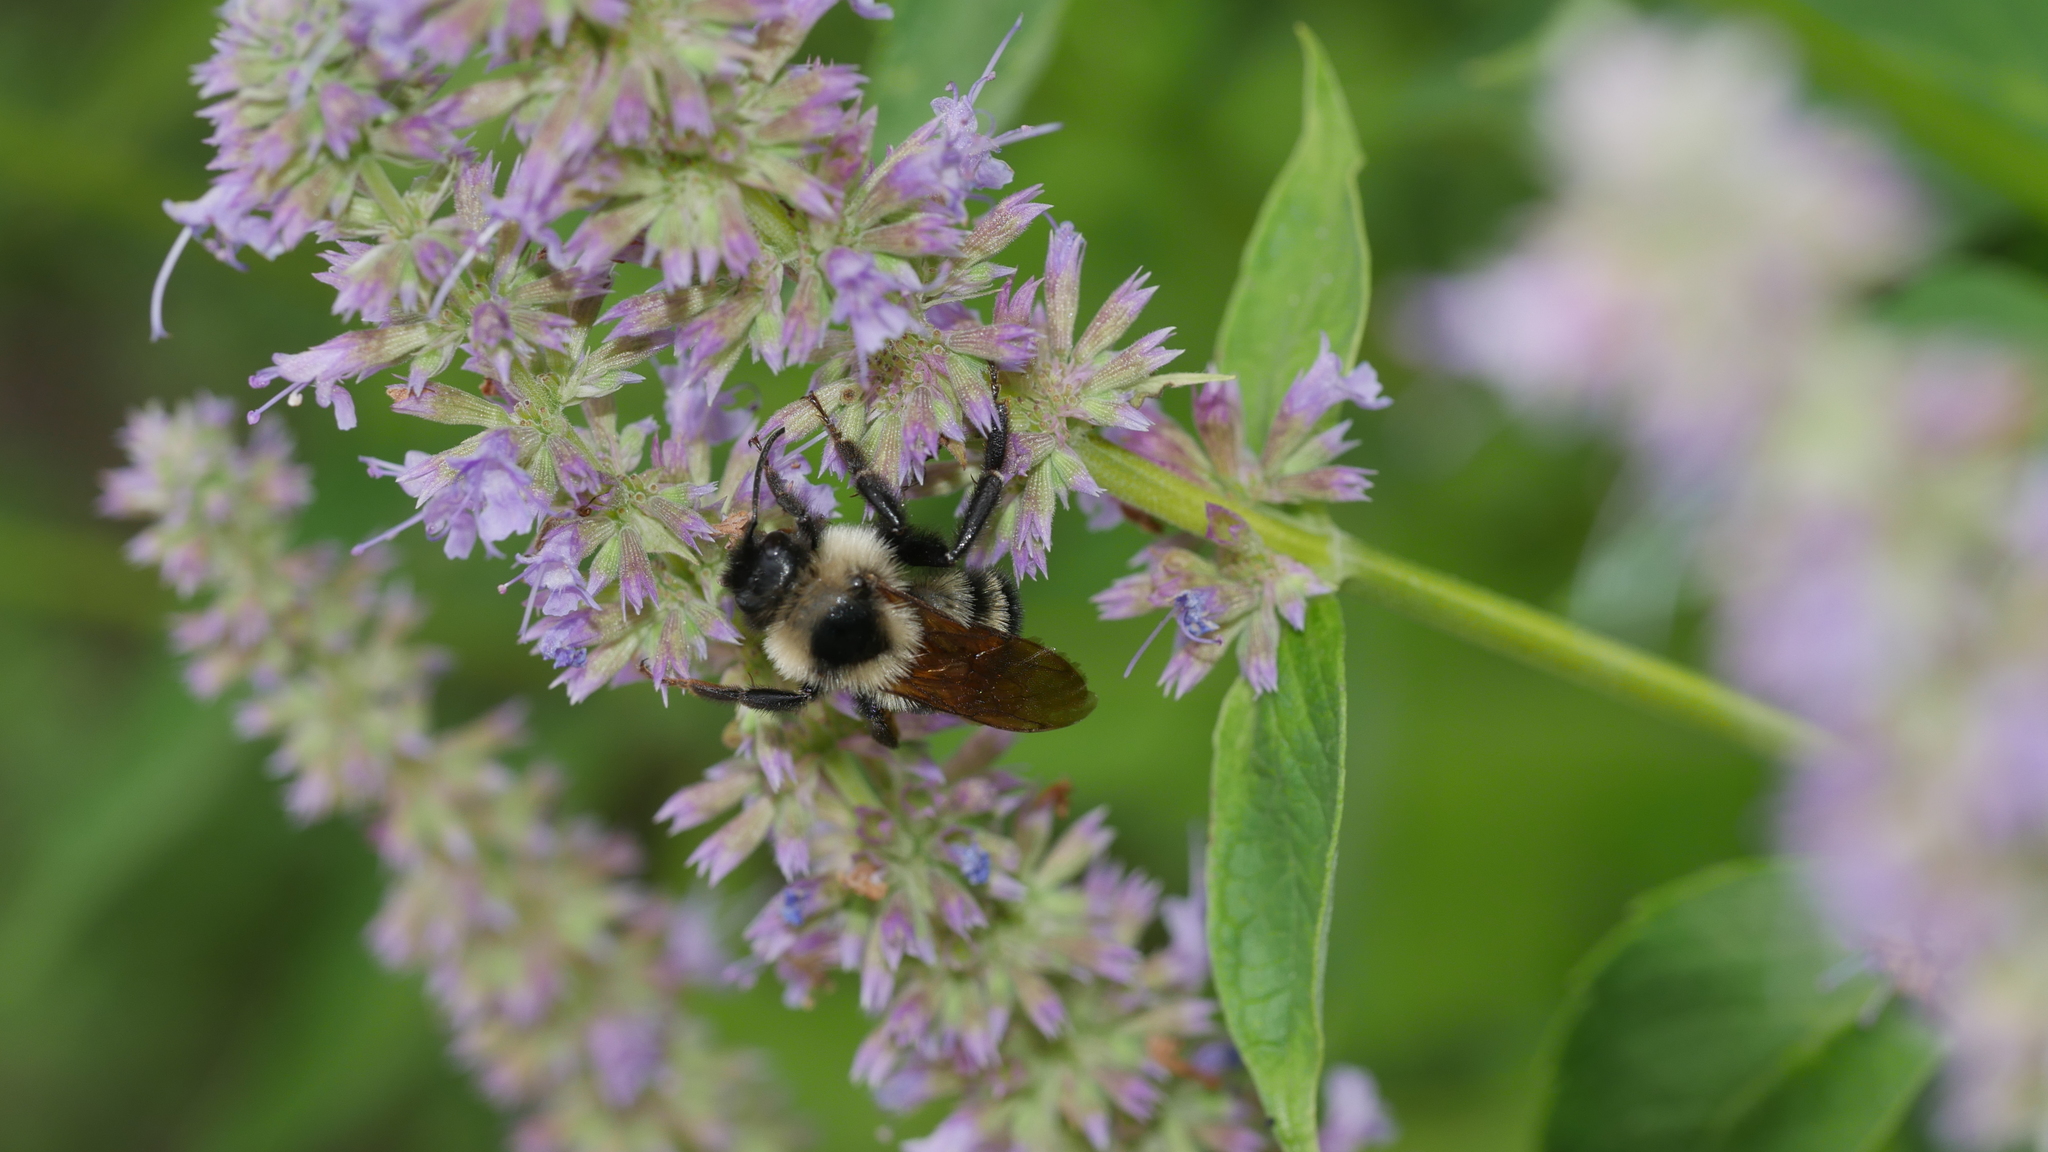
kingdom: Animalia
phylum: Arthropoda
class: Insecta
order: Hymenoptera
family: Apidae
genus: Bombus
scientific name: Bombus citrinus
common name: Lemon cuckoo bumble bee
